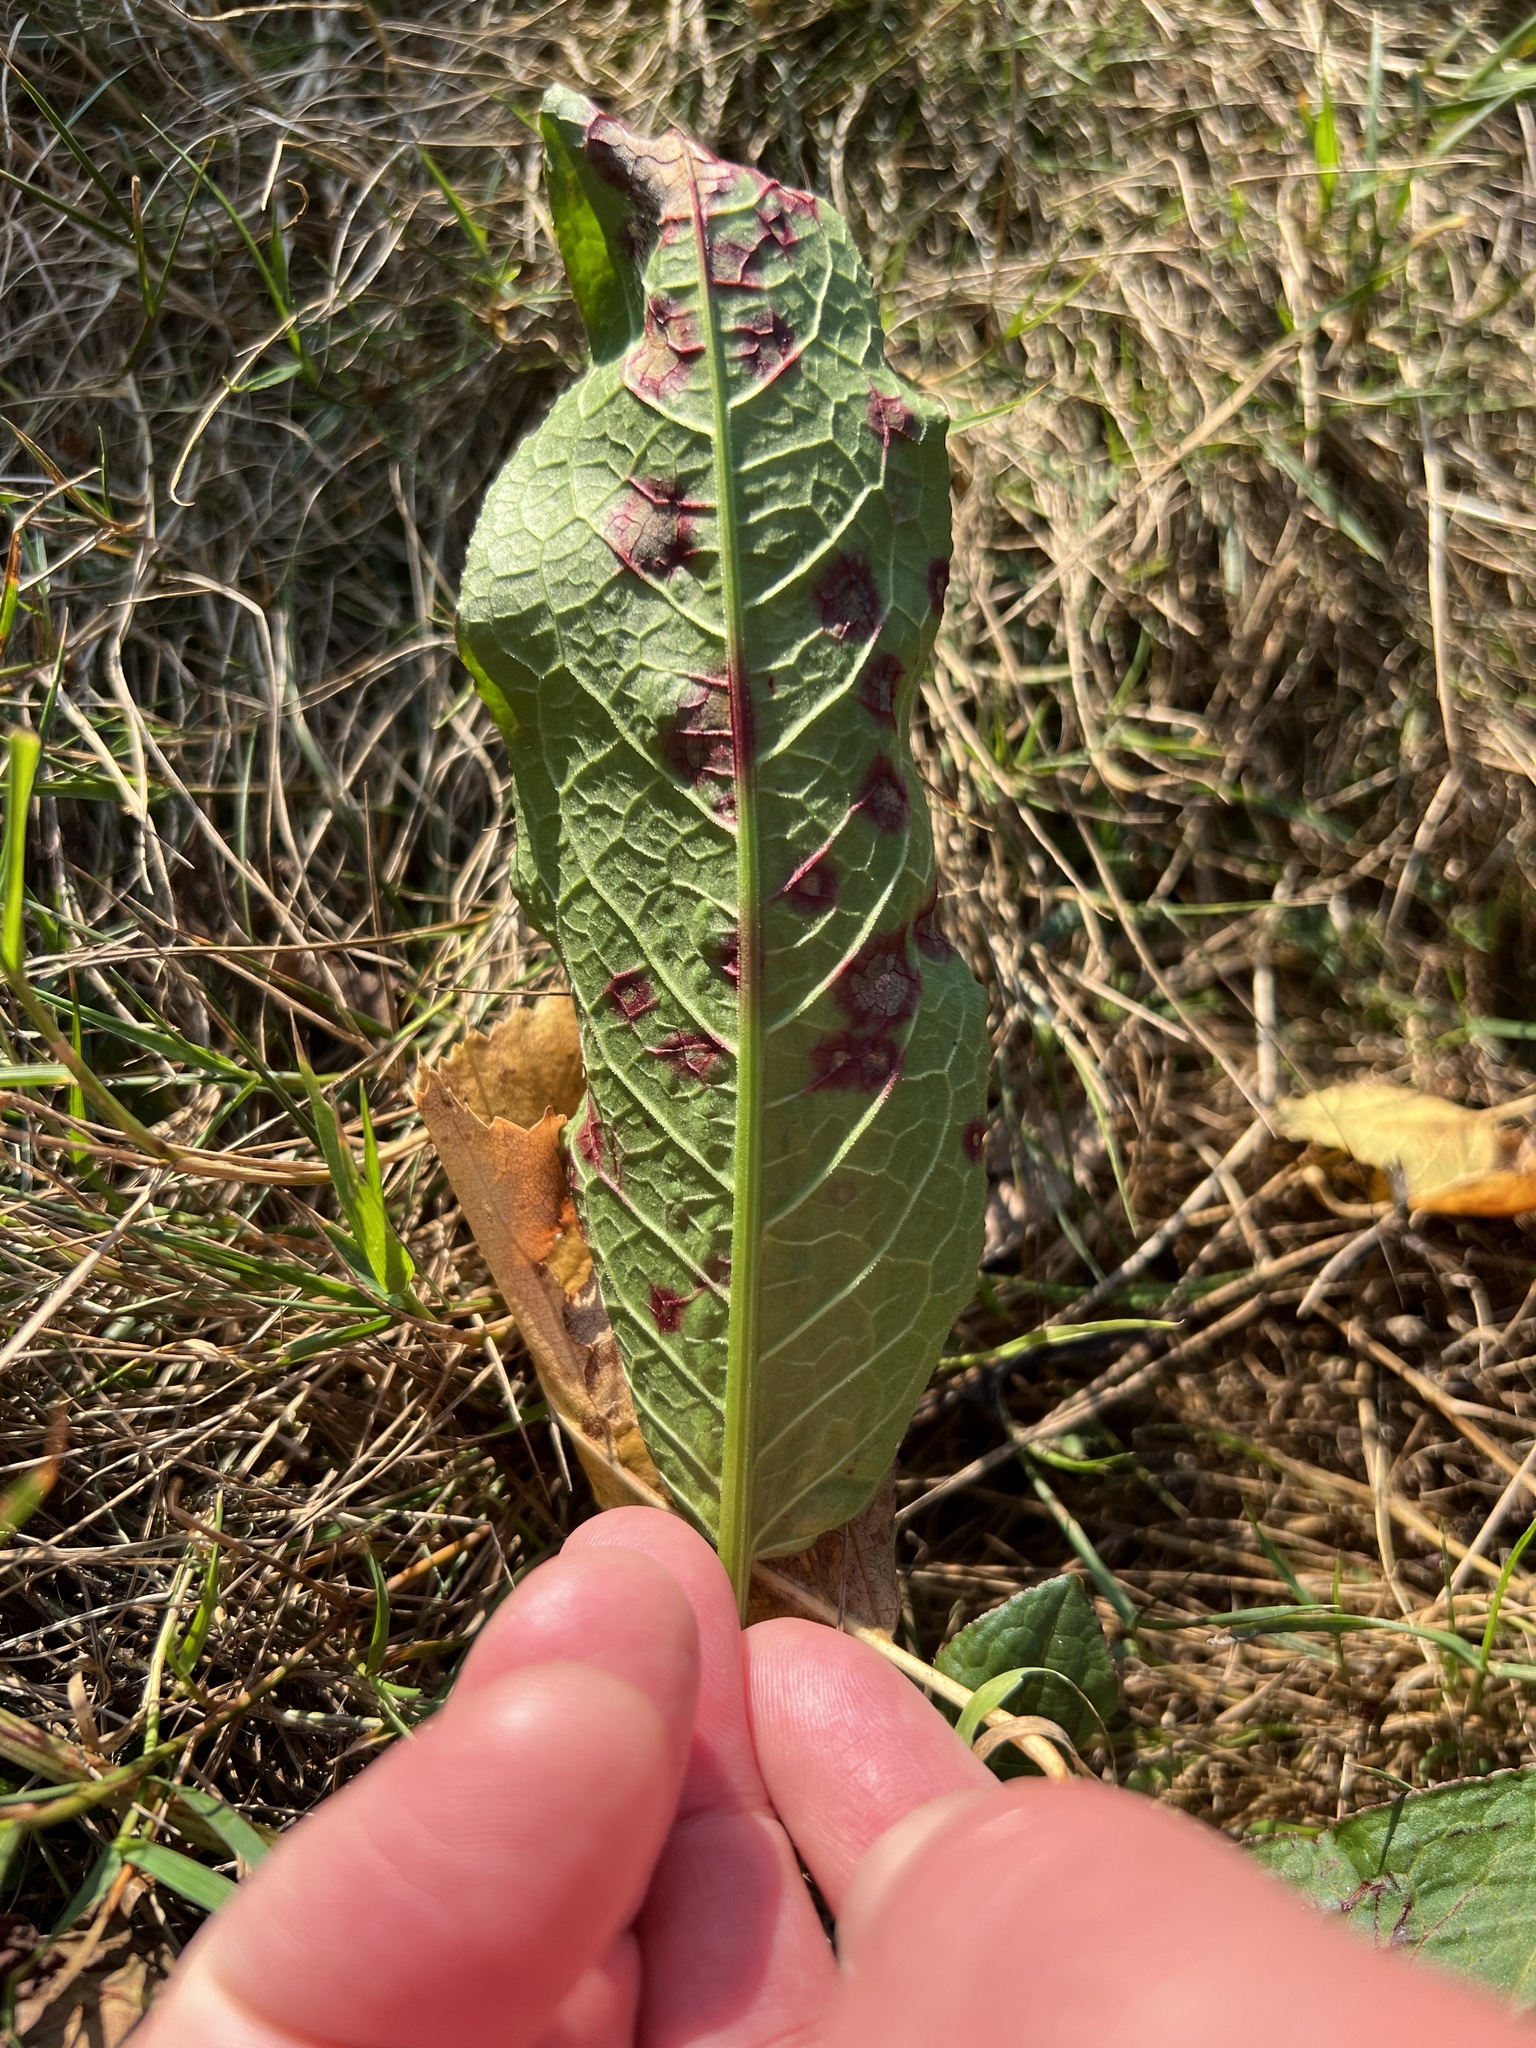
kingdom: Fungi
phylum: Ascomycota
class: Dothideomycetes
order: Mycosphaerellales
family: Mycosphaerellaceae
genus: Ramularia
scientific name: Ramularia rubella
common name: Red dock spot
